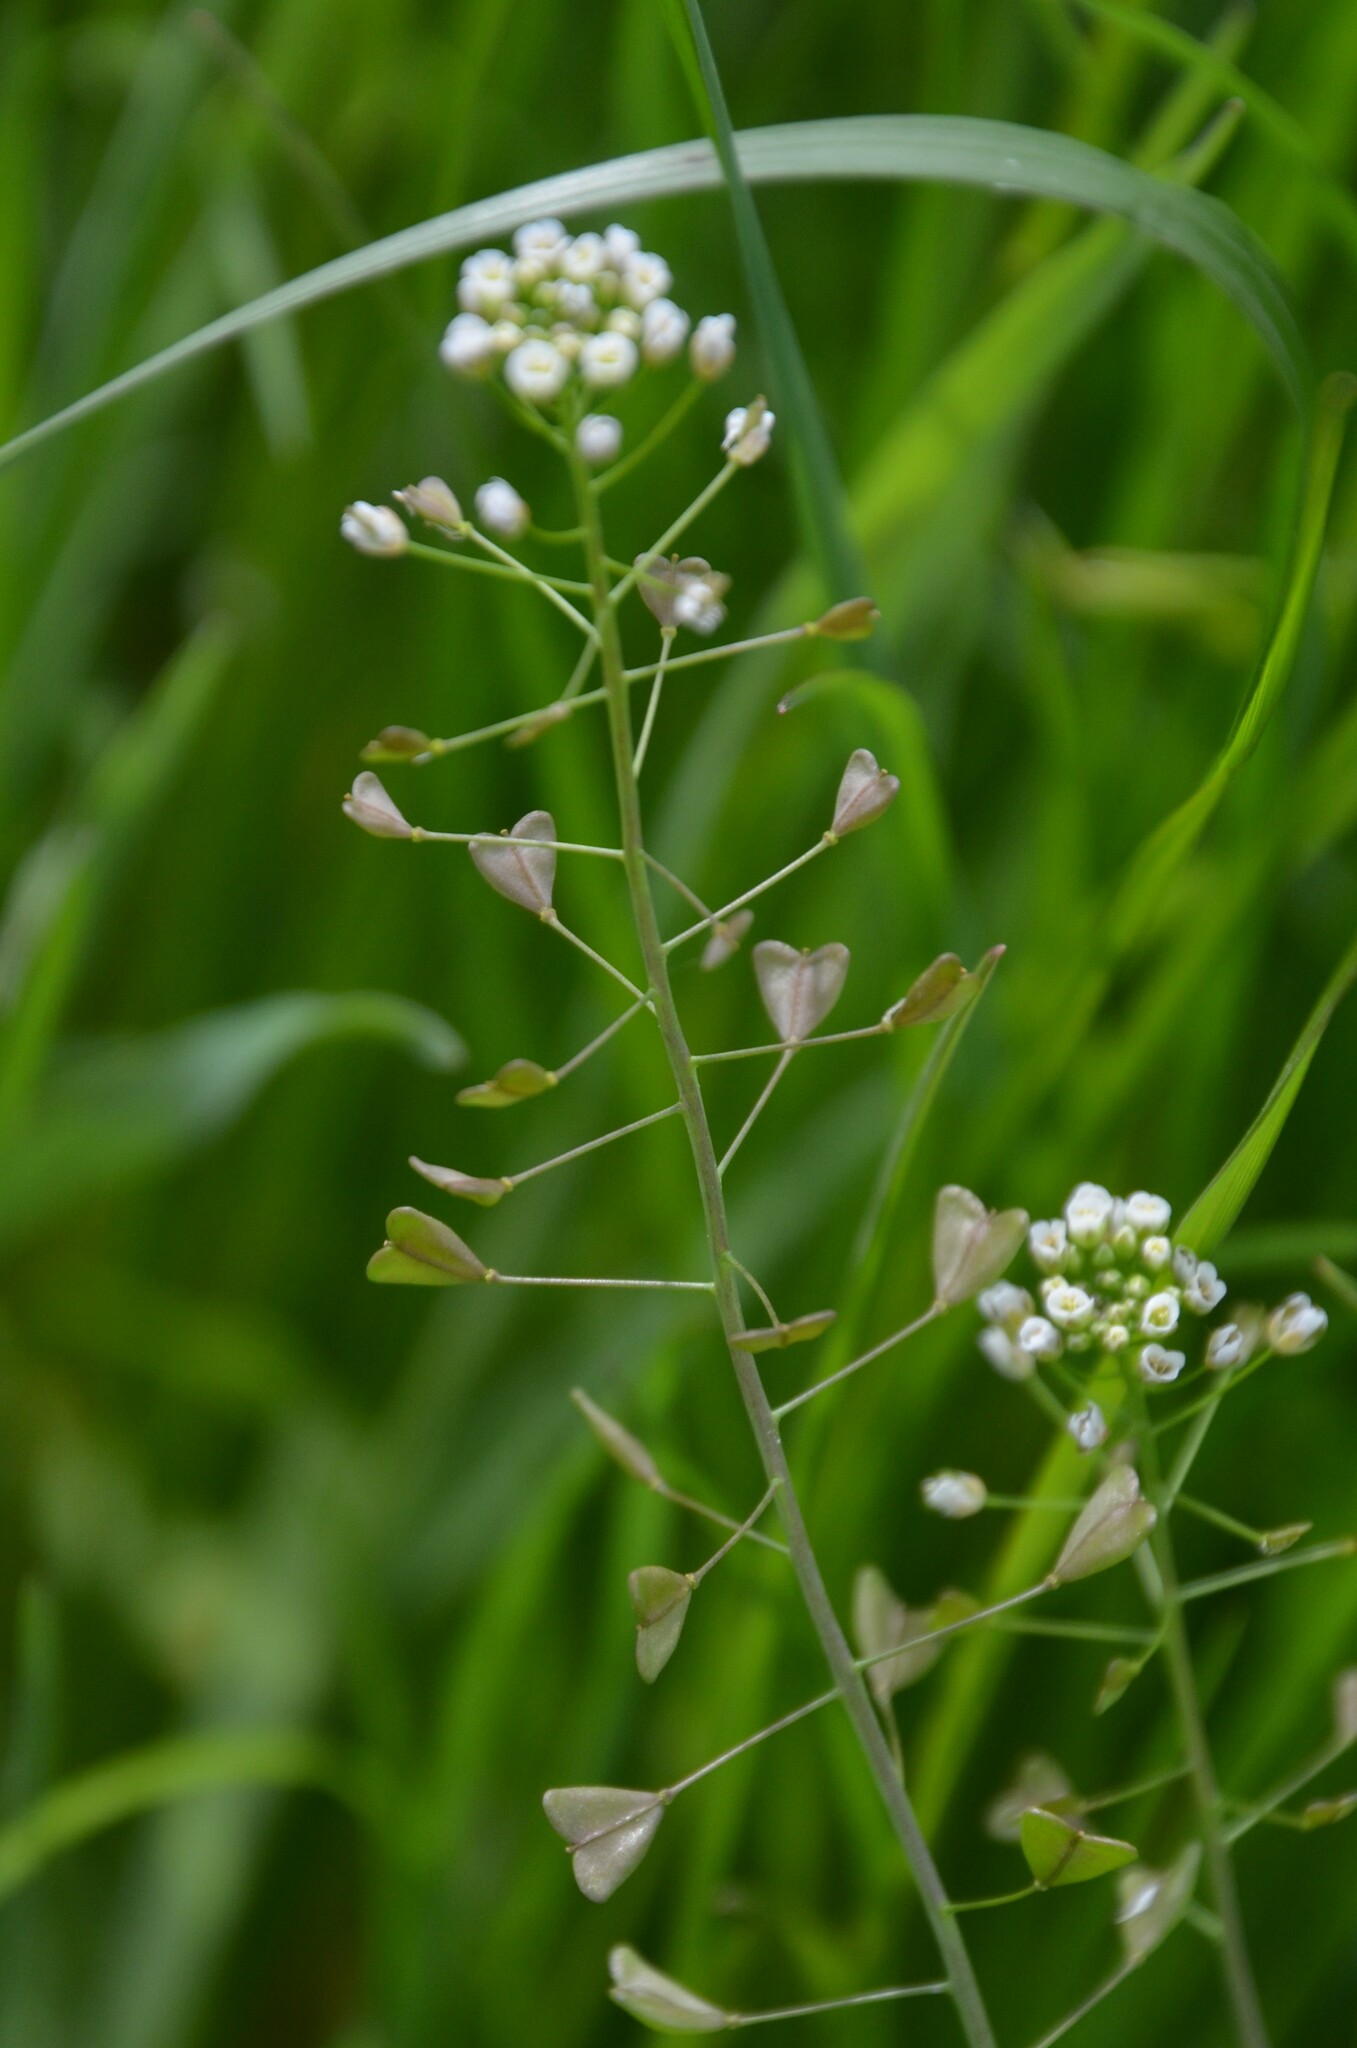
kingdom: Plantae
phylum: Tracheophyta
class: Magnoliopsida
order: Brassicales
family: Brassicaceae
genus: Capsella
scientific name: Capsella bursa-pastoris
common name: Shepherd's purse
